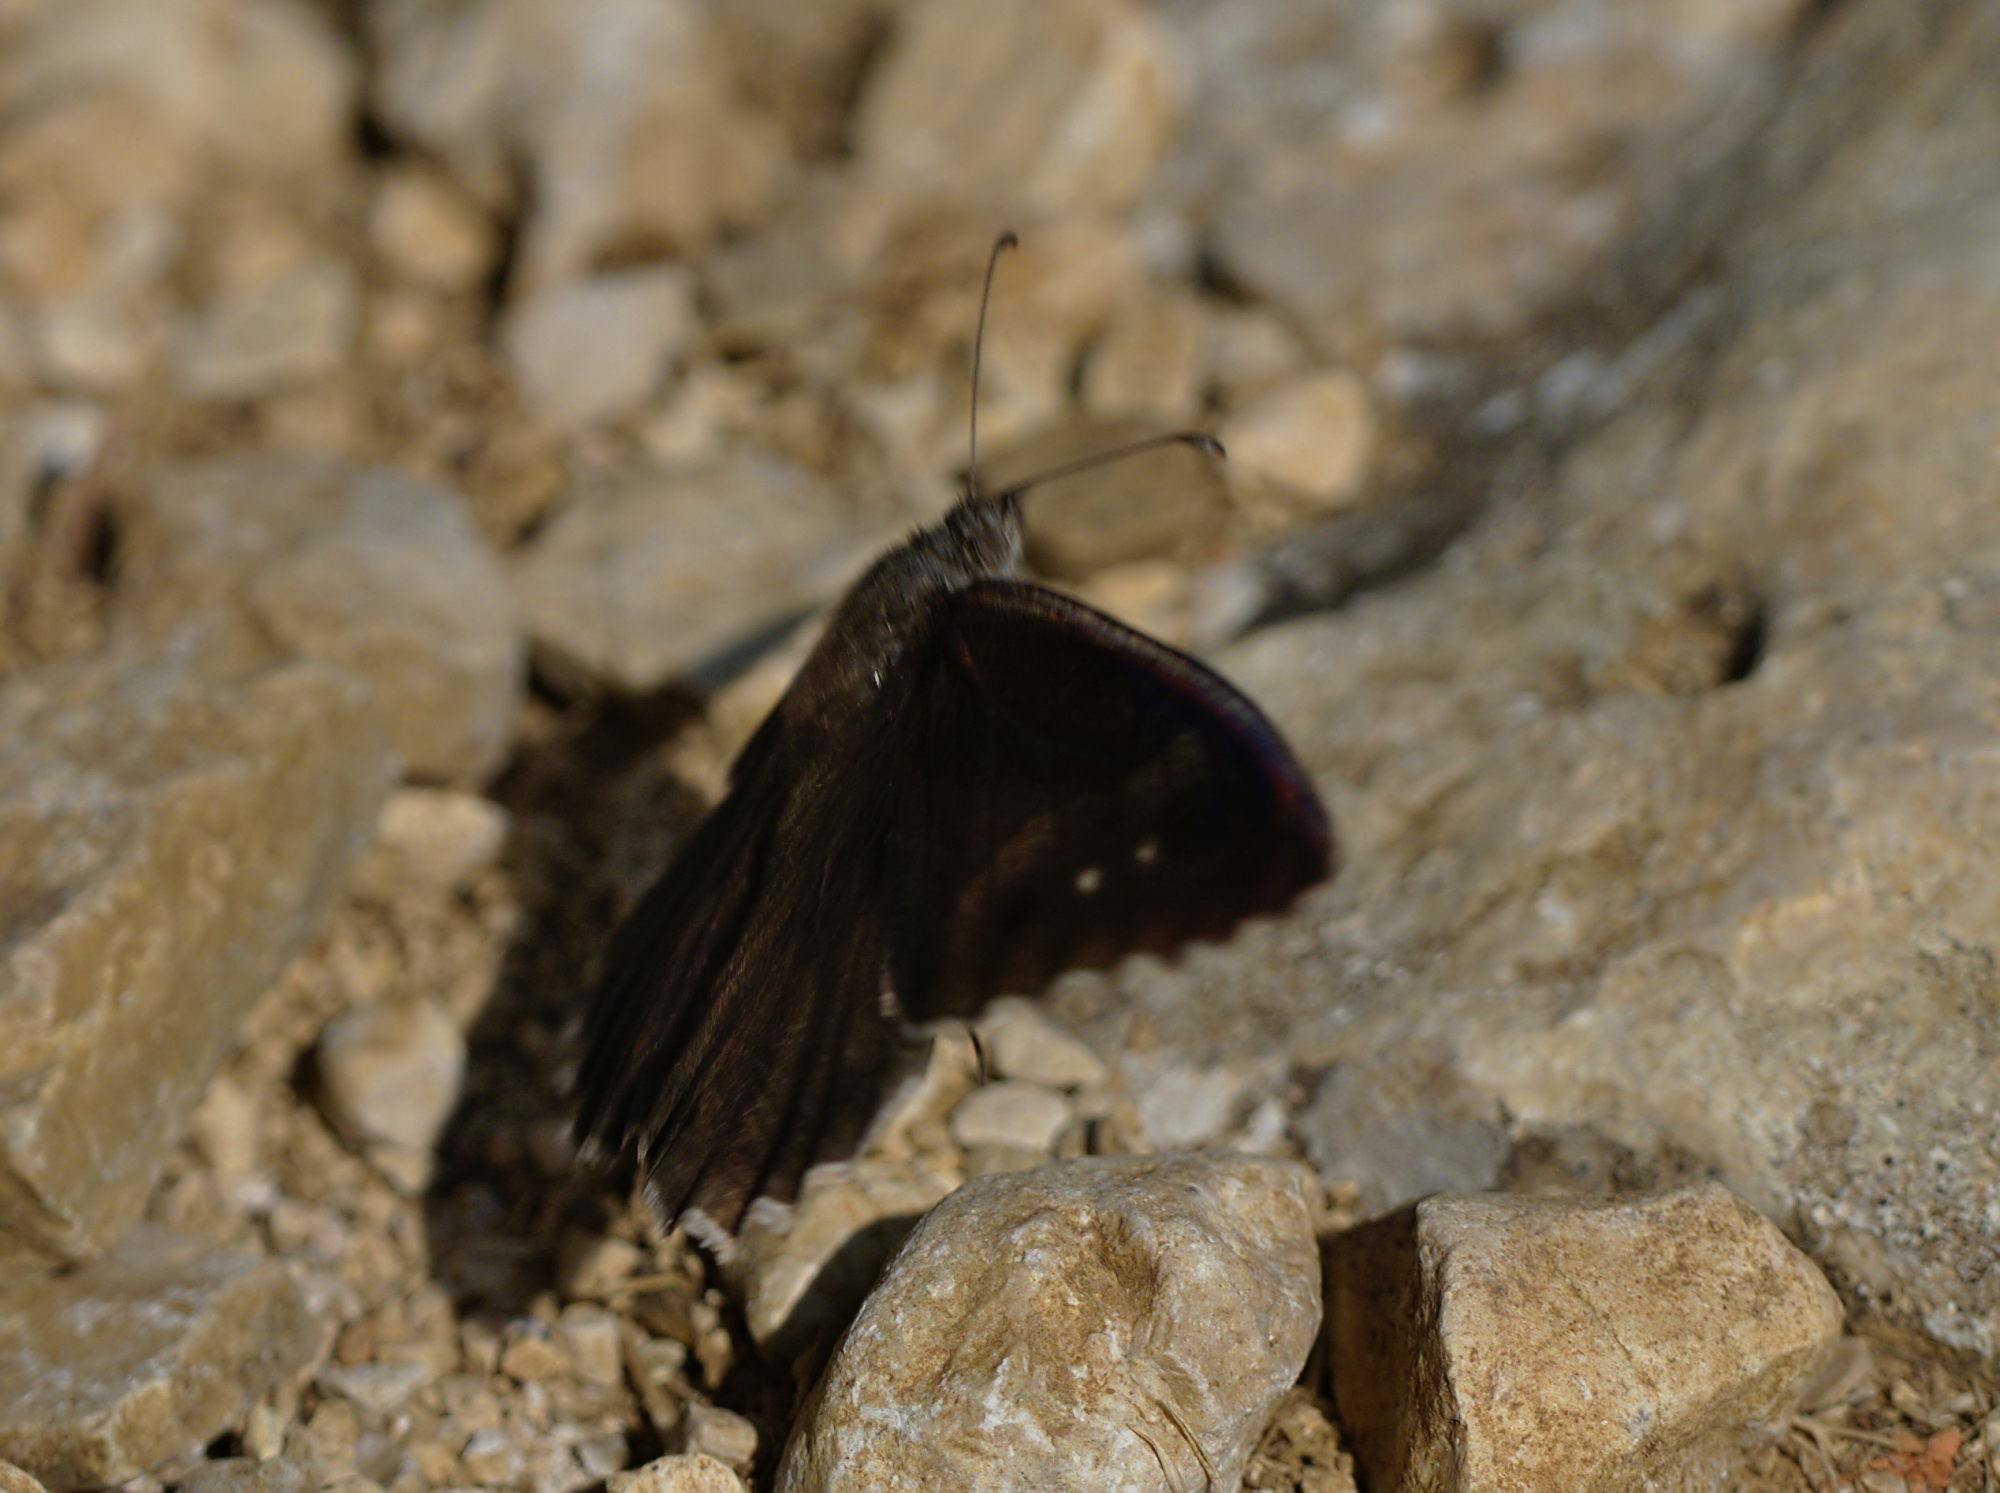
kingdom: Animalia
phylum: Arthropoda
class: Insecta
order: Lepidoptera
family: Nymphalidae
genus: Hipparchia
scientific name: Hipparchia statilinus
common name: Tree grayling
